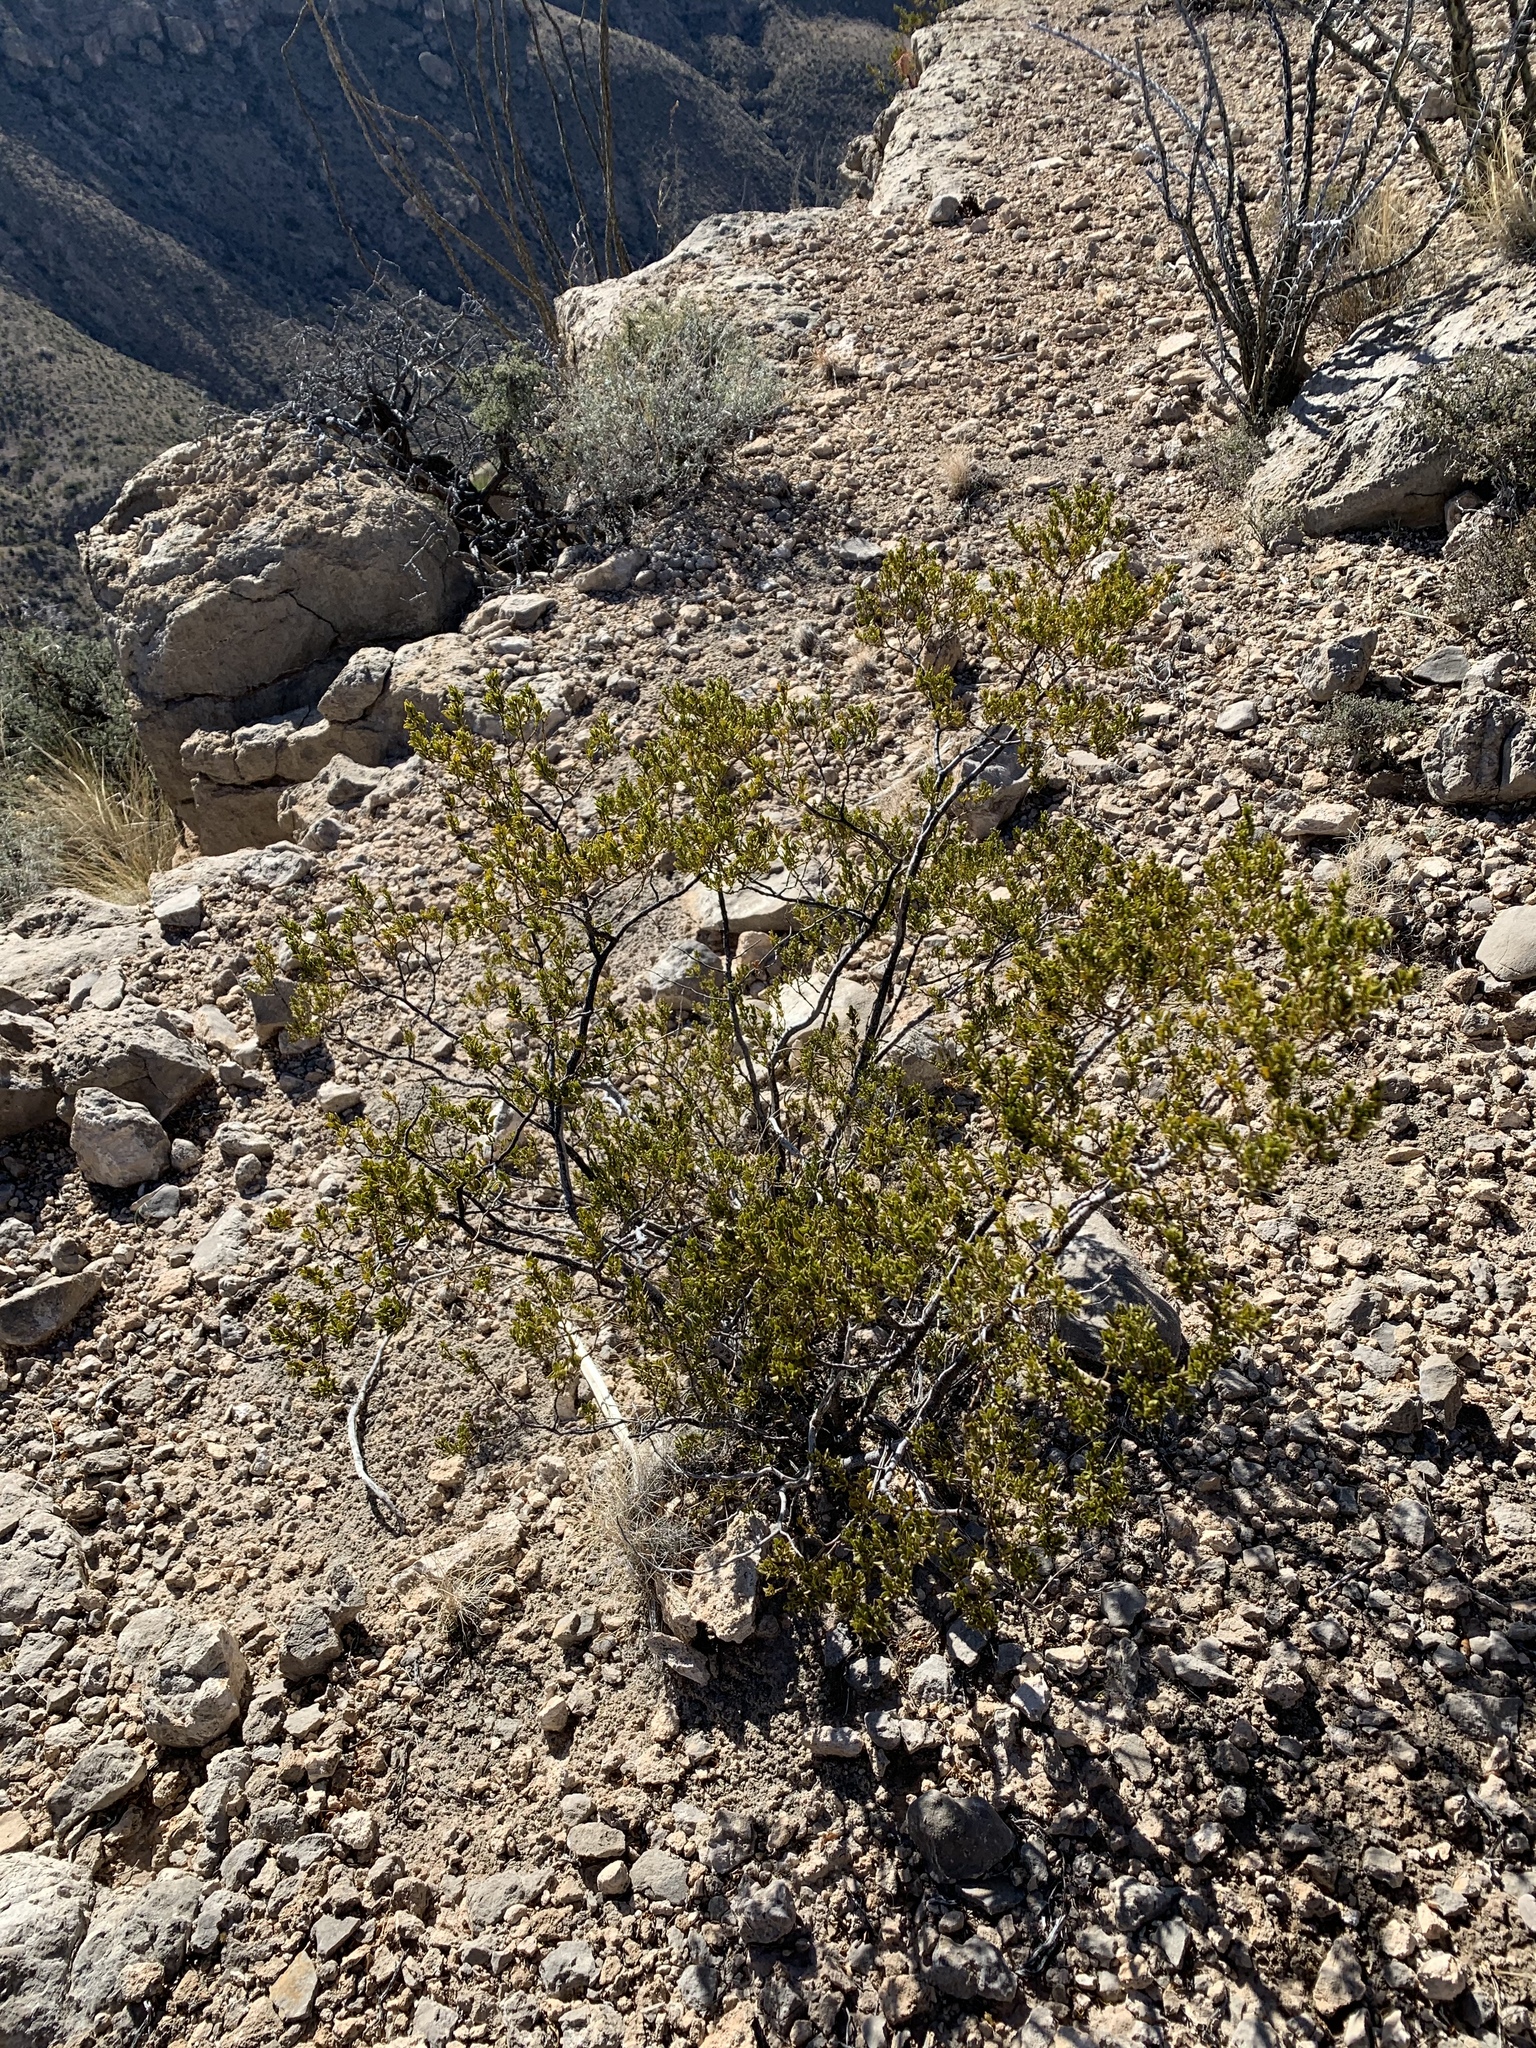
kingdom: Plantae
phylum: Tracheophyta
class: Magnoliopsida
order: Zygophyllales
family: Zygophyllaceae
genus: Larrea
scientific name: Larrea tridentata
